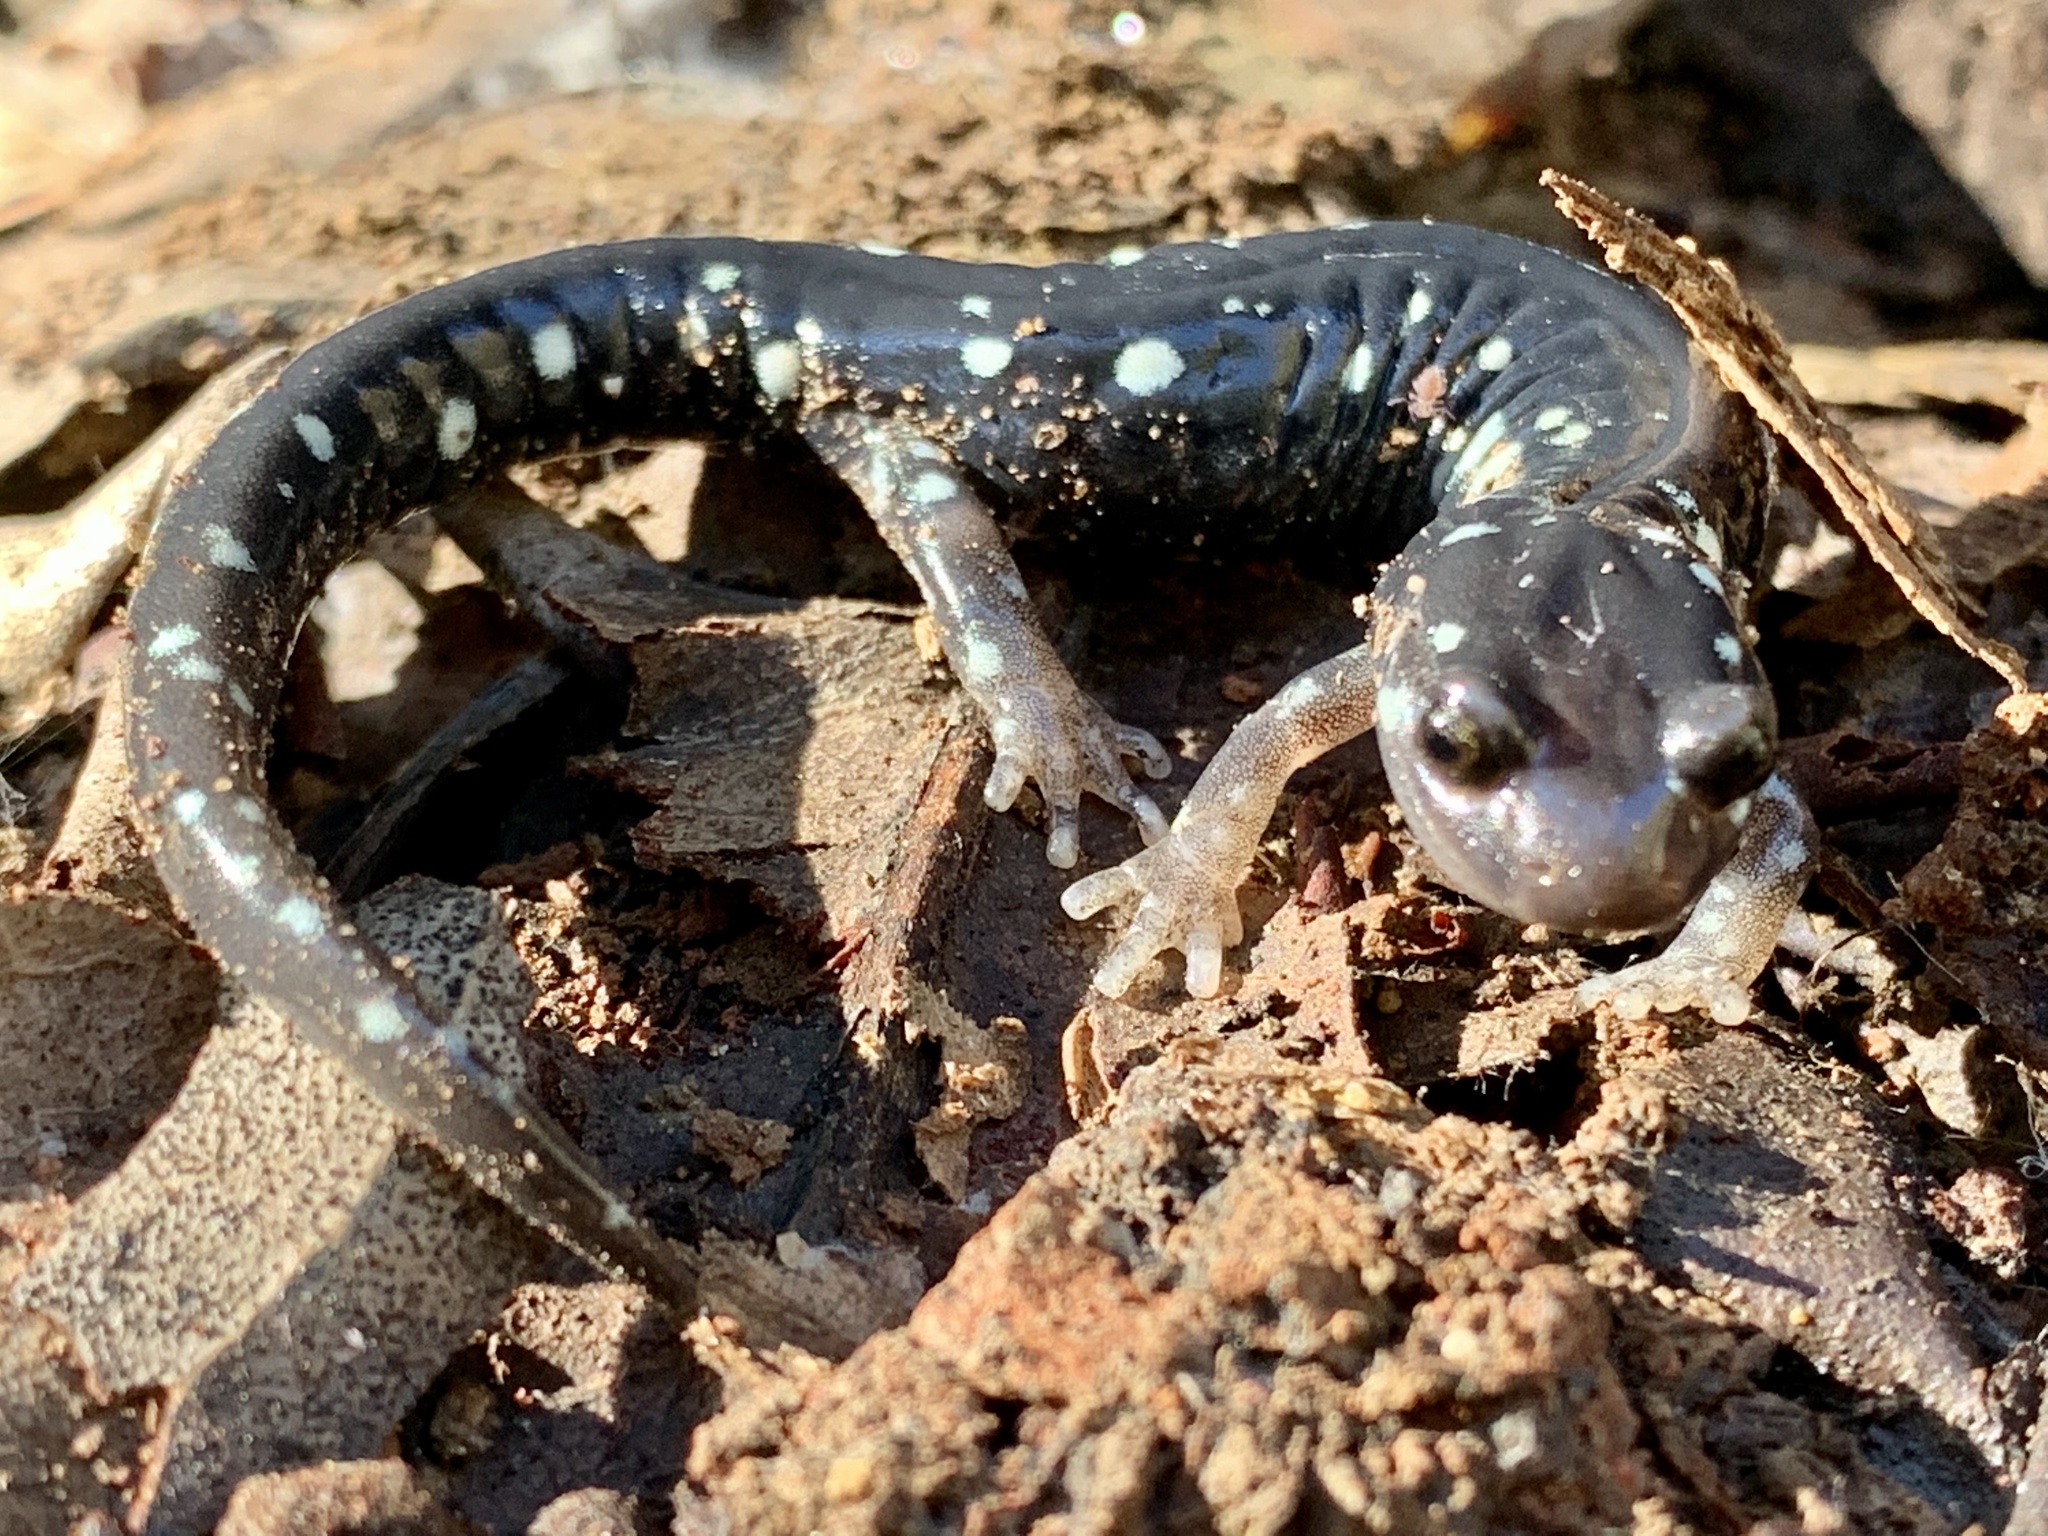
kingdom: Animalia
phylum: Chordata
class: Amphibia
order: Caudata
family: Plethodontidae
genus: Aneides
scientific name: Aneides flavipunctatus
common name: Black salamander
